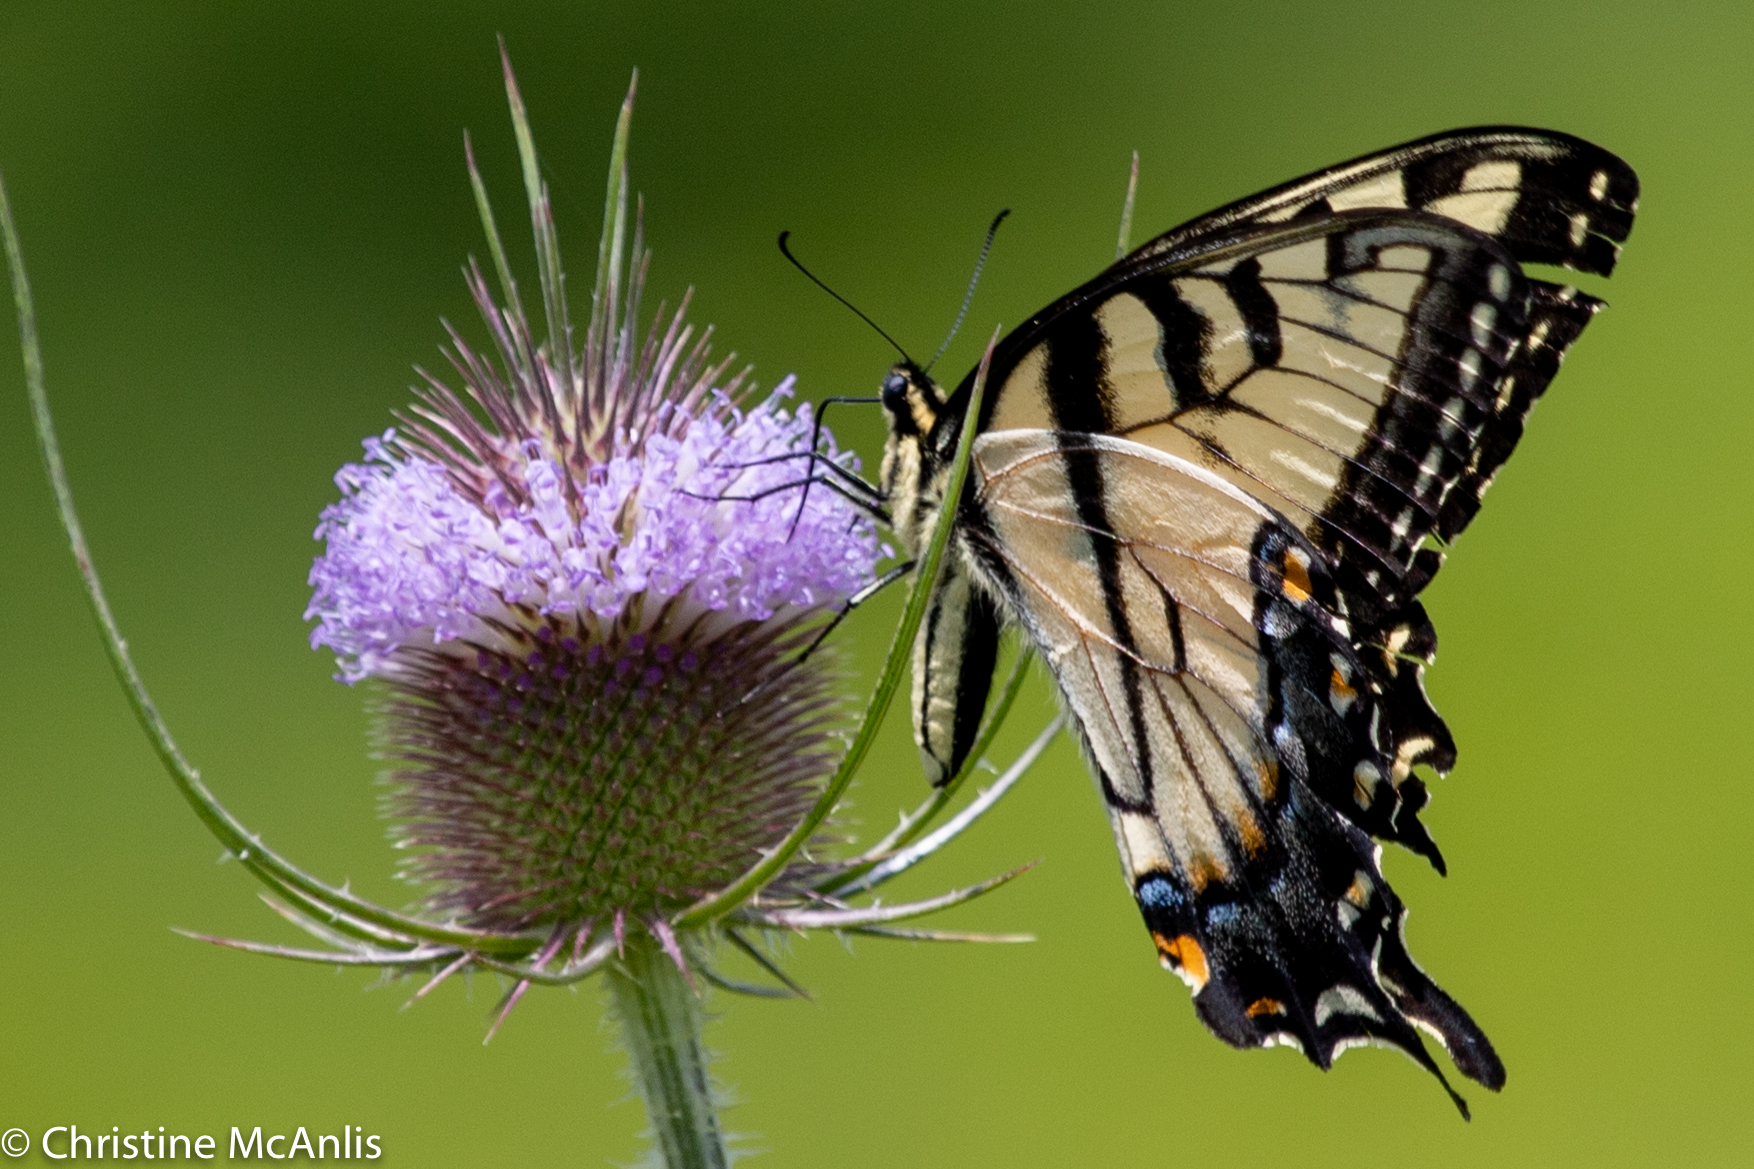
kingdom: Animalia
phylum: Arthropoda
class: Insecta
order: Lepidoptera
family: Papilionidae
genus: Papilio
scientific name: Papilio glaucus
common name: Tiger swallowtail
